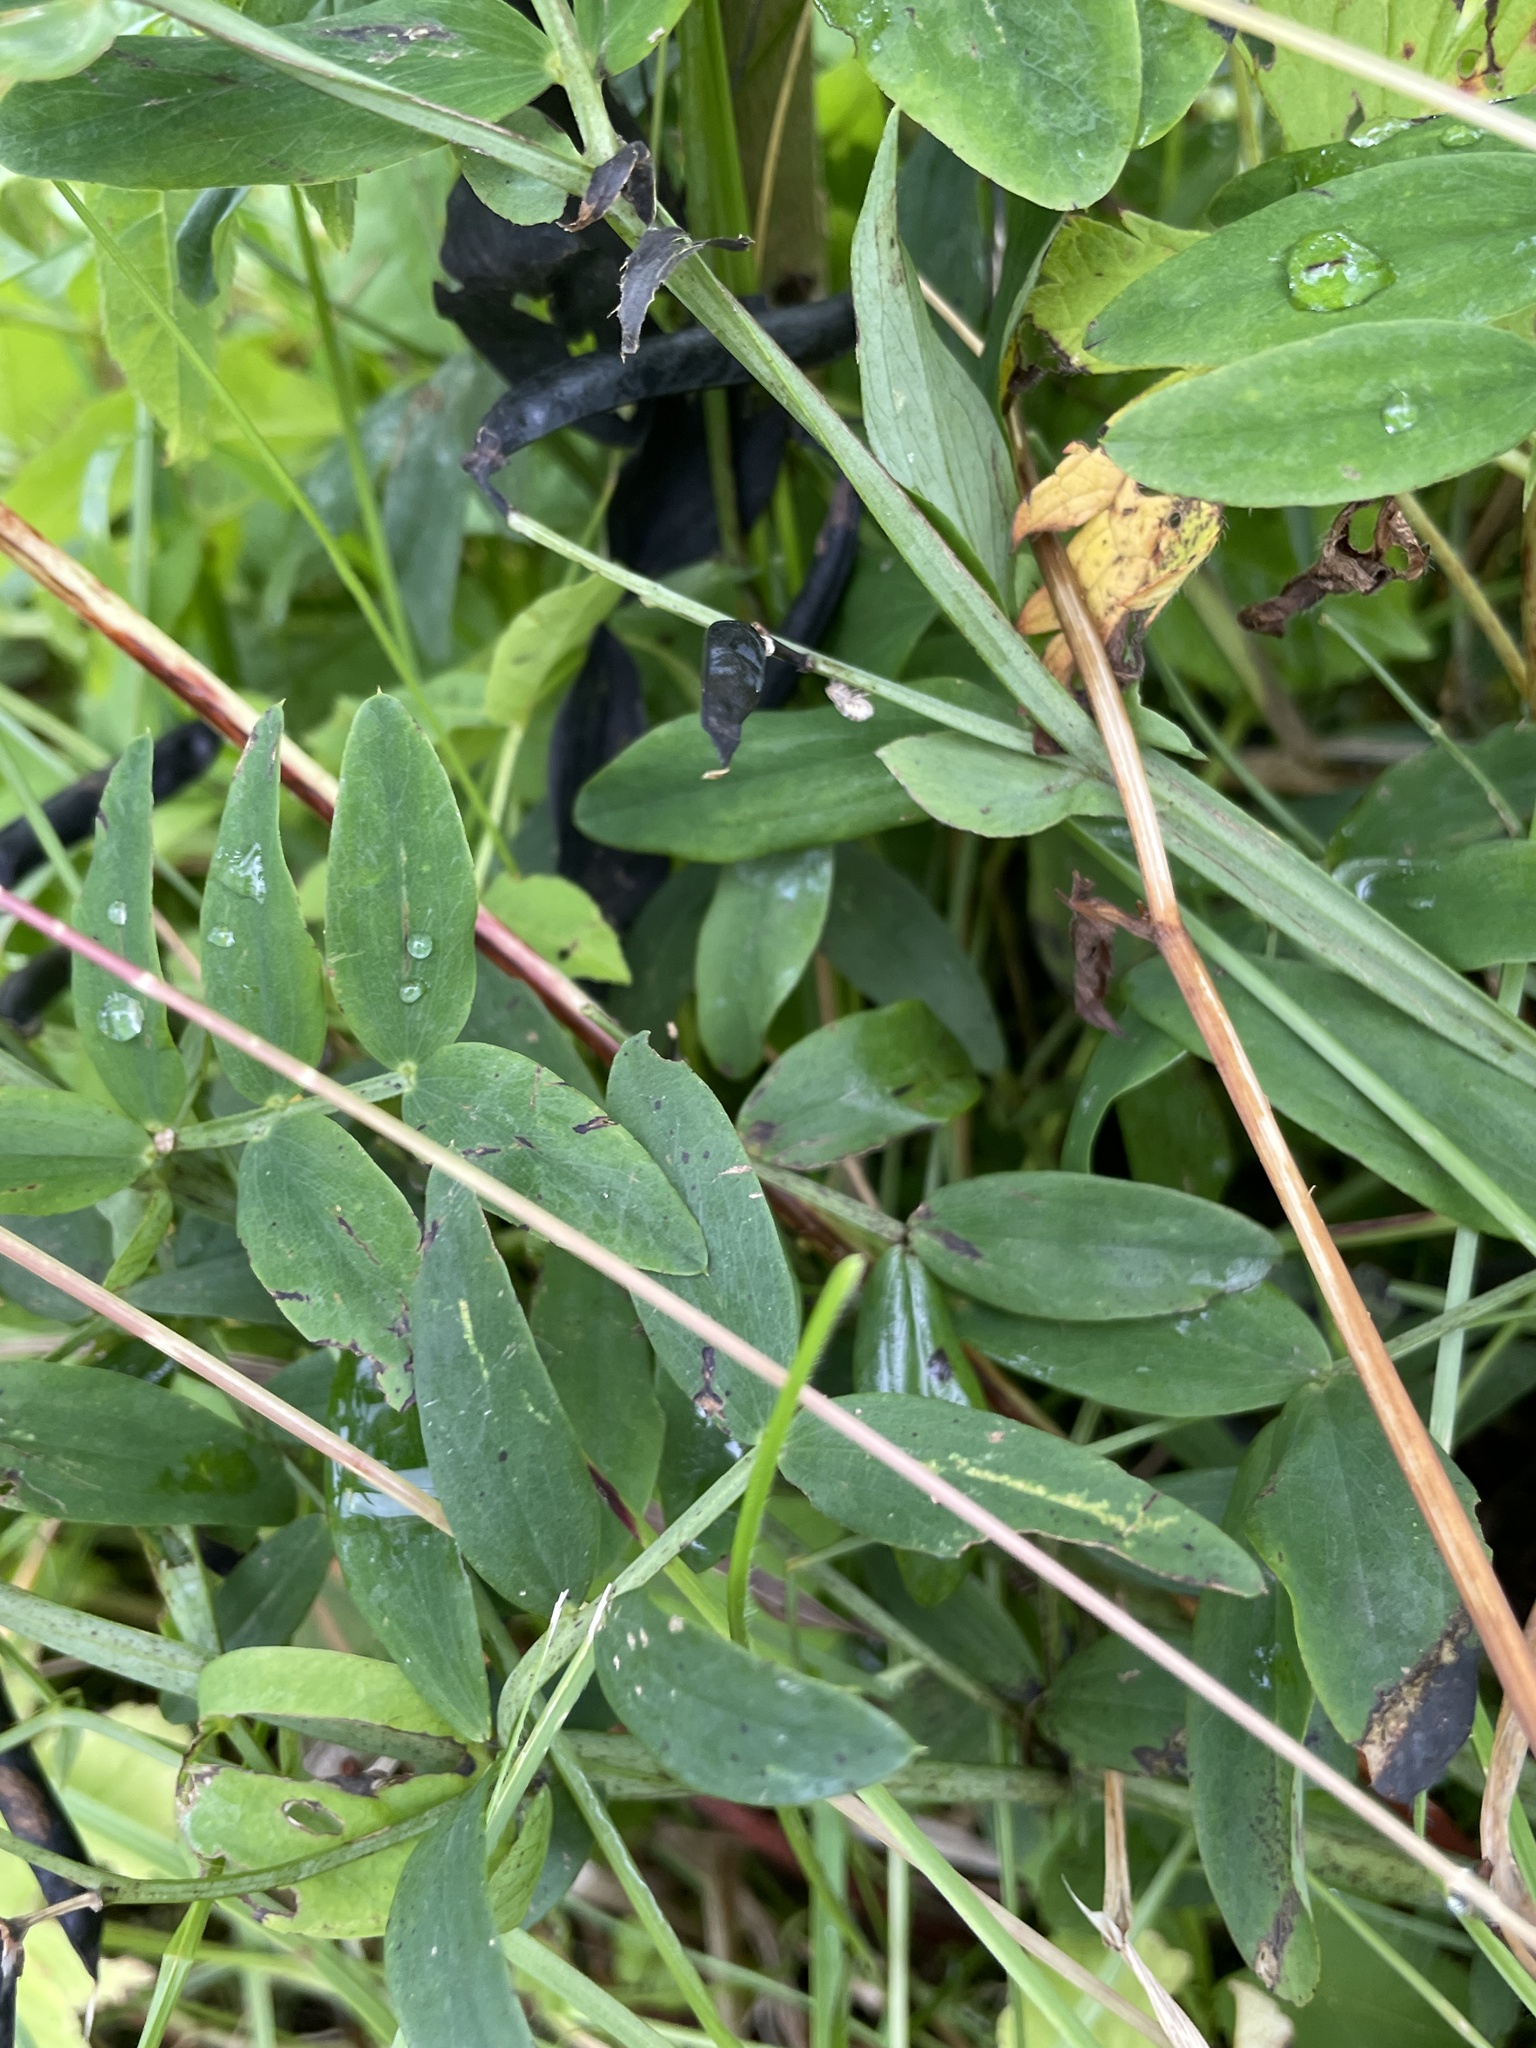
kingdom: Plantae
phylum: Tracheophyta
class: Magnoliopsida
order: Fabales
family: Fabaceae
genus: Lathyrus
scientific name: Lathyrus linifolius
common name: Bitter-vetch
